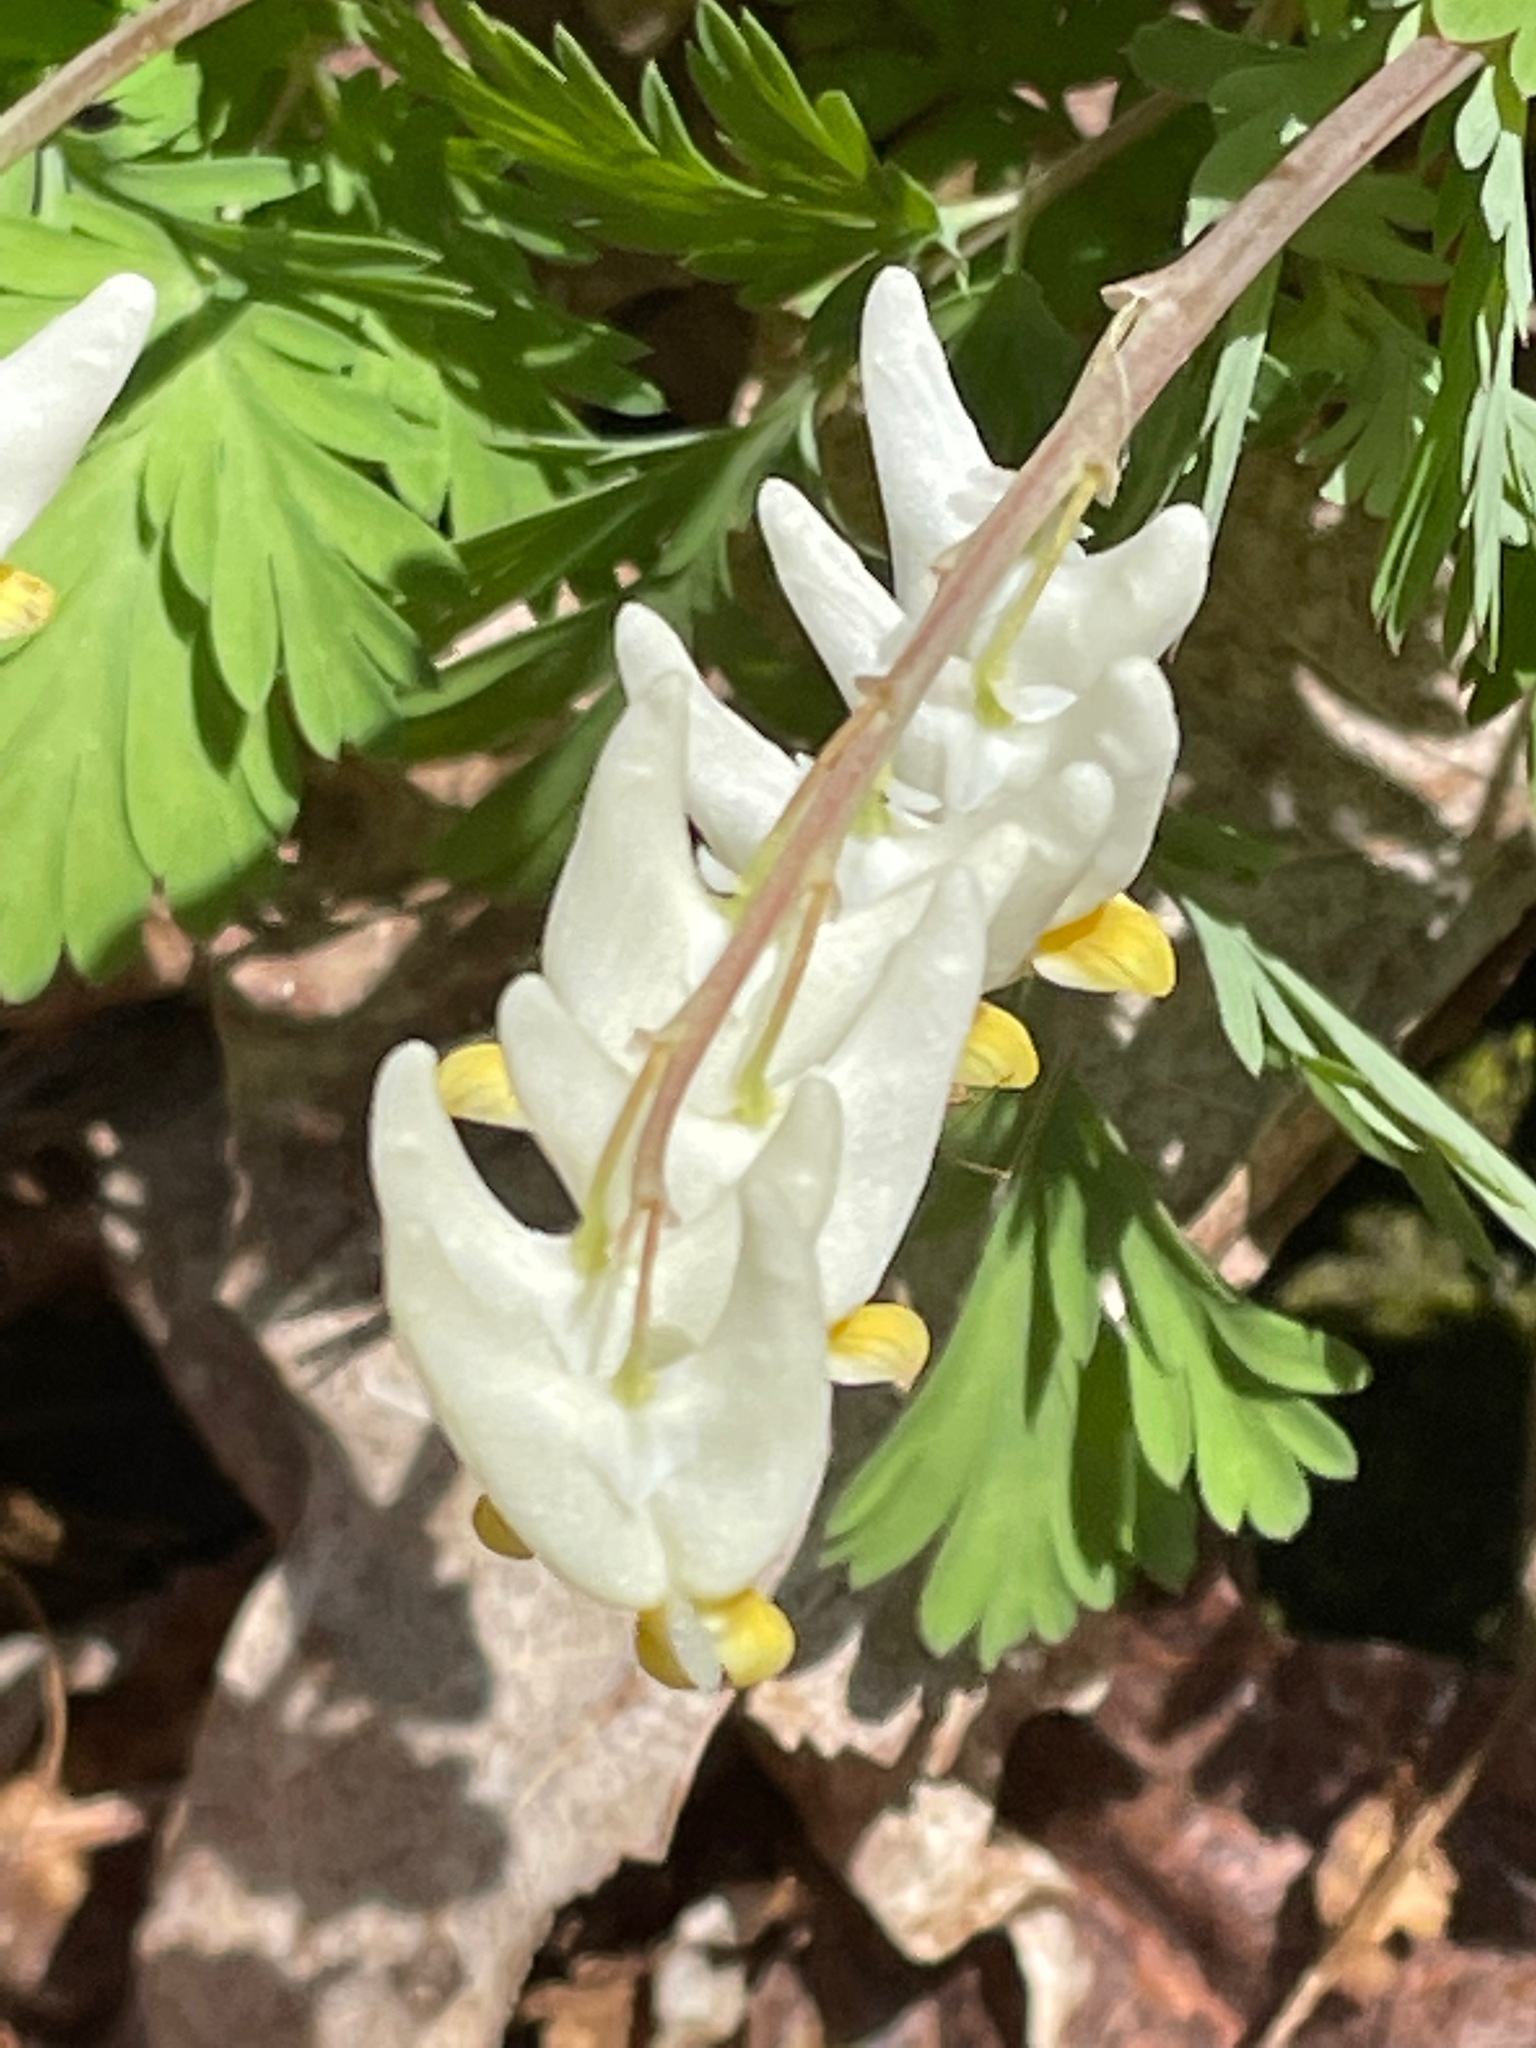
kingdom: Plantae
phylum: Tracheophyta
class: Magnoliopsida
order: Ranunculales
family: Papaveraceae
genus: Dicentra
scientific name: Dicentra cucullaria
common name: Dutchman's breeches
